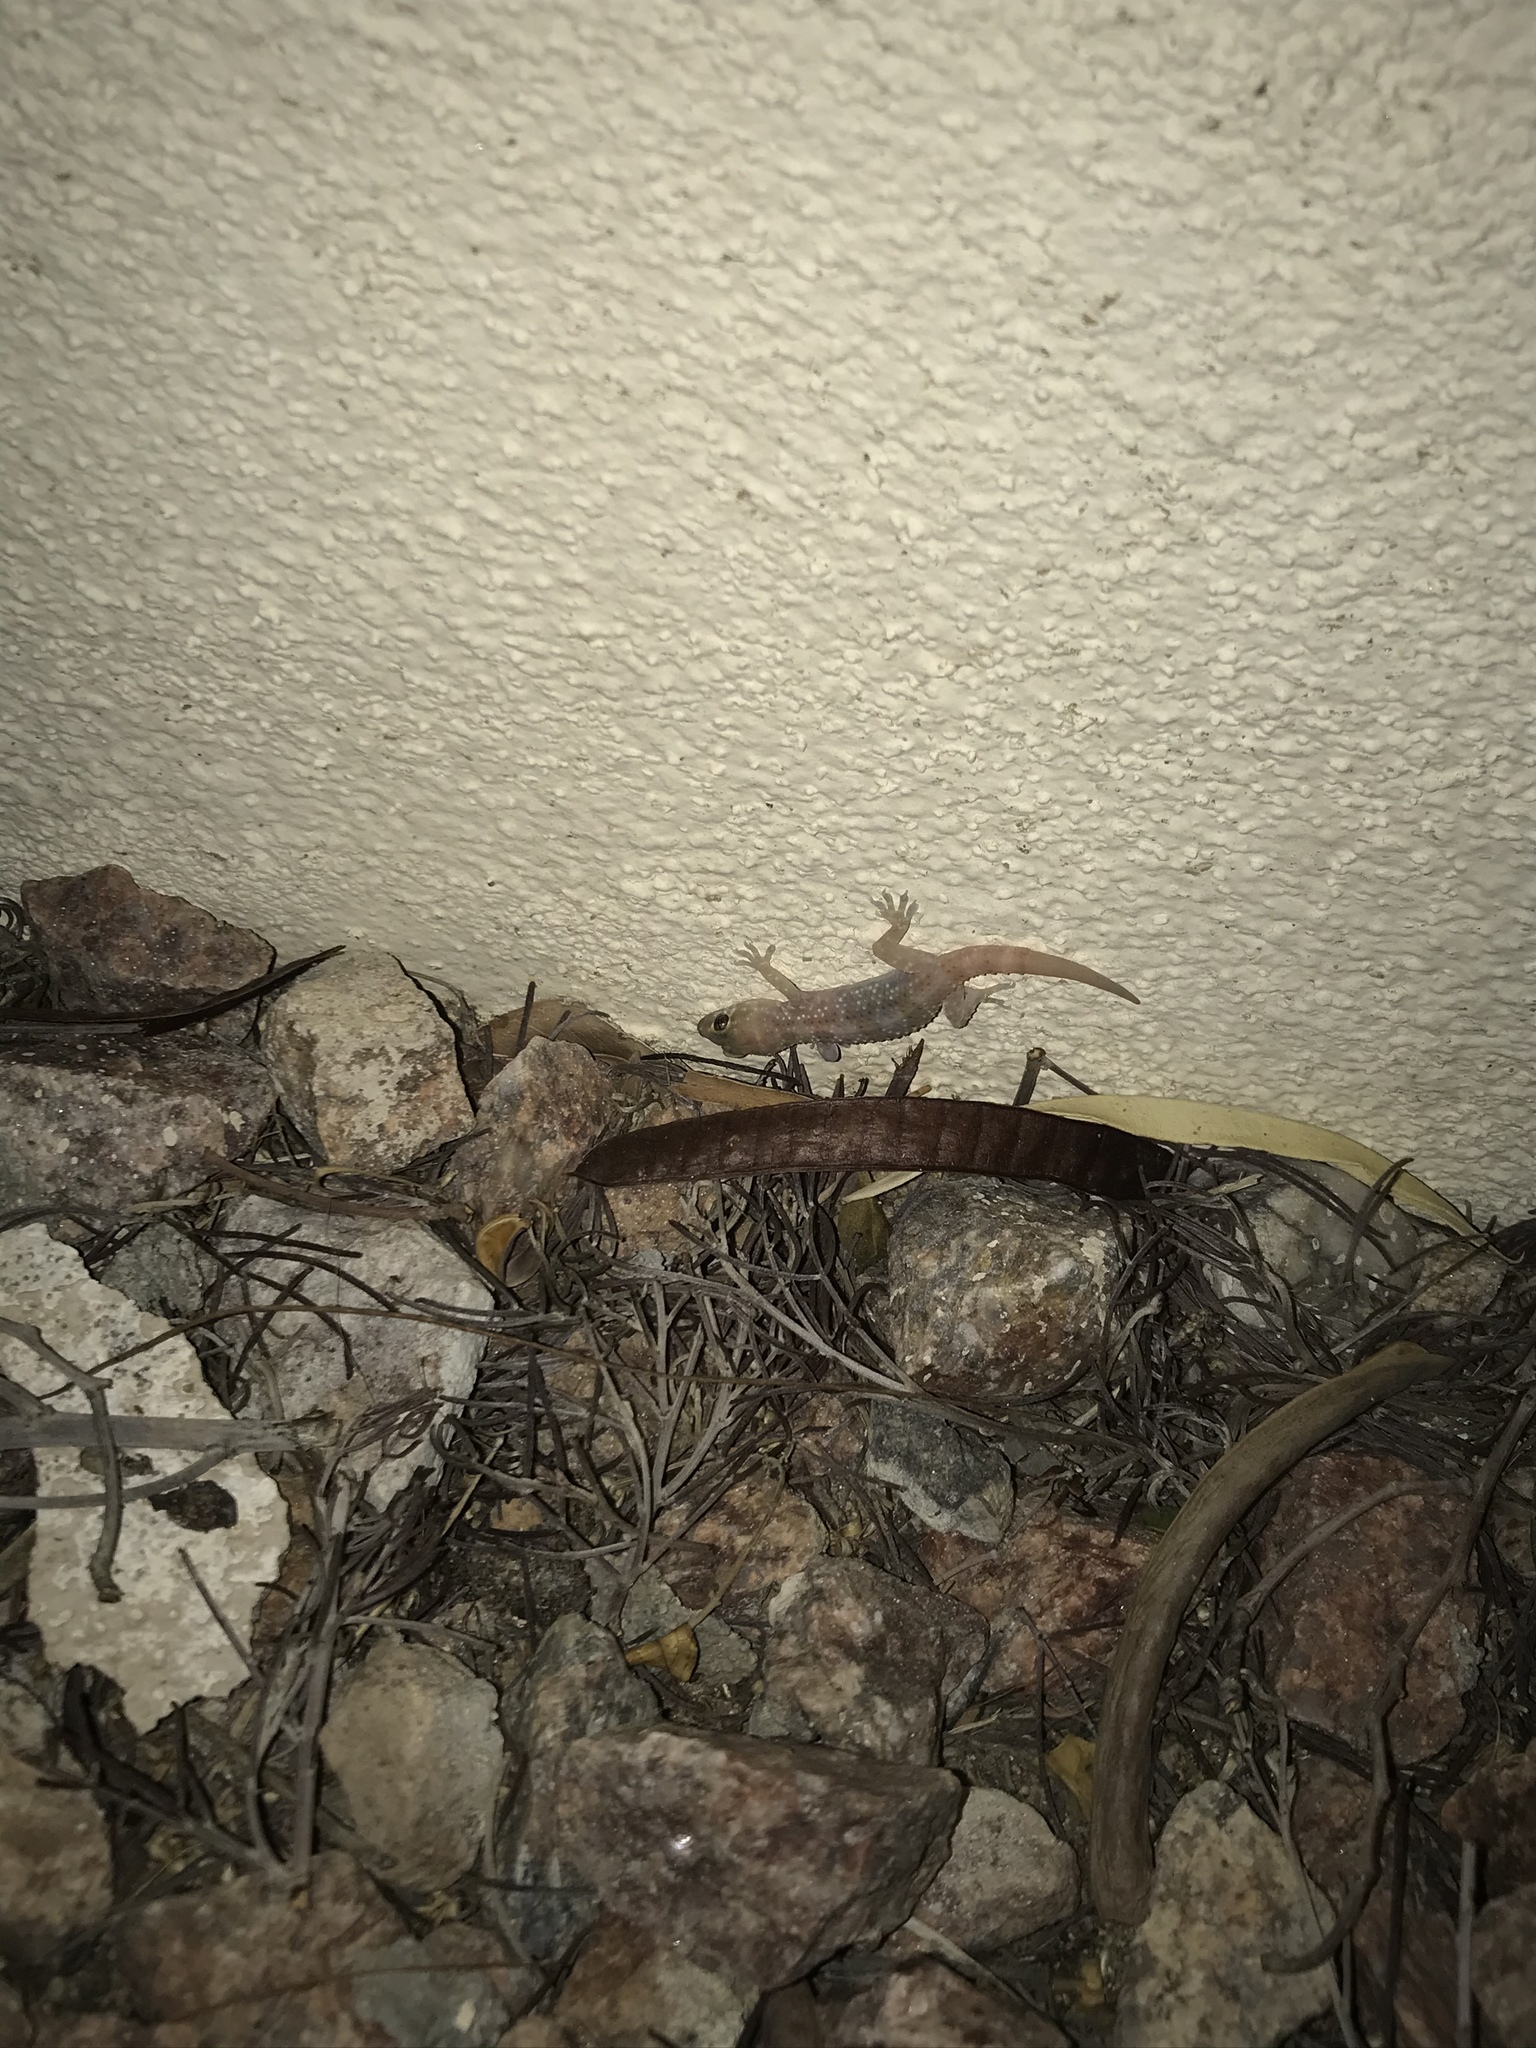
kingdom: Animalia
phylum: Chordata
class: Squamata
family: Gekkonidae
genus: Hemidactylus
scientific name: Hemidactylus turcicus
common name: Turkish gecko
